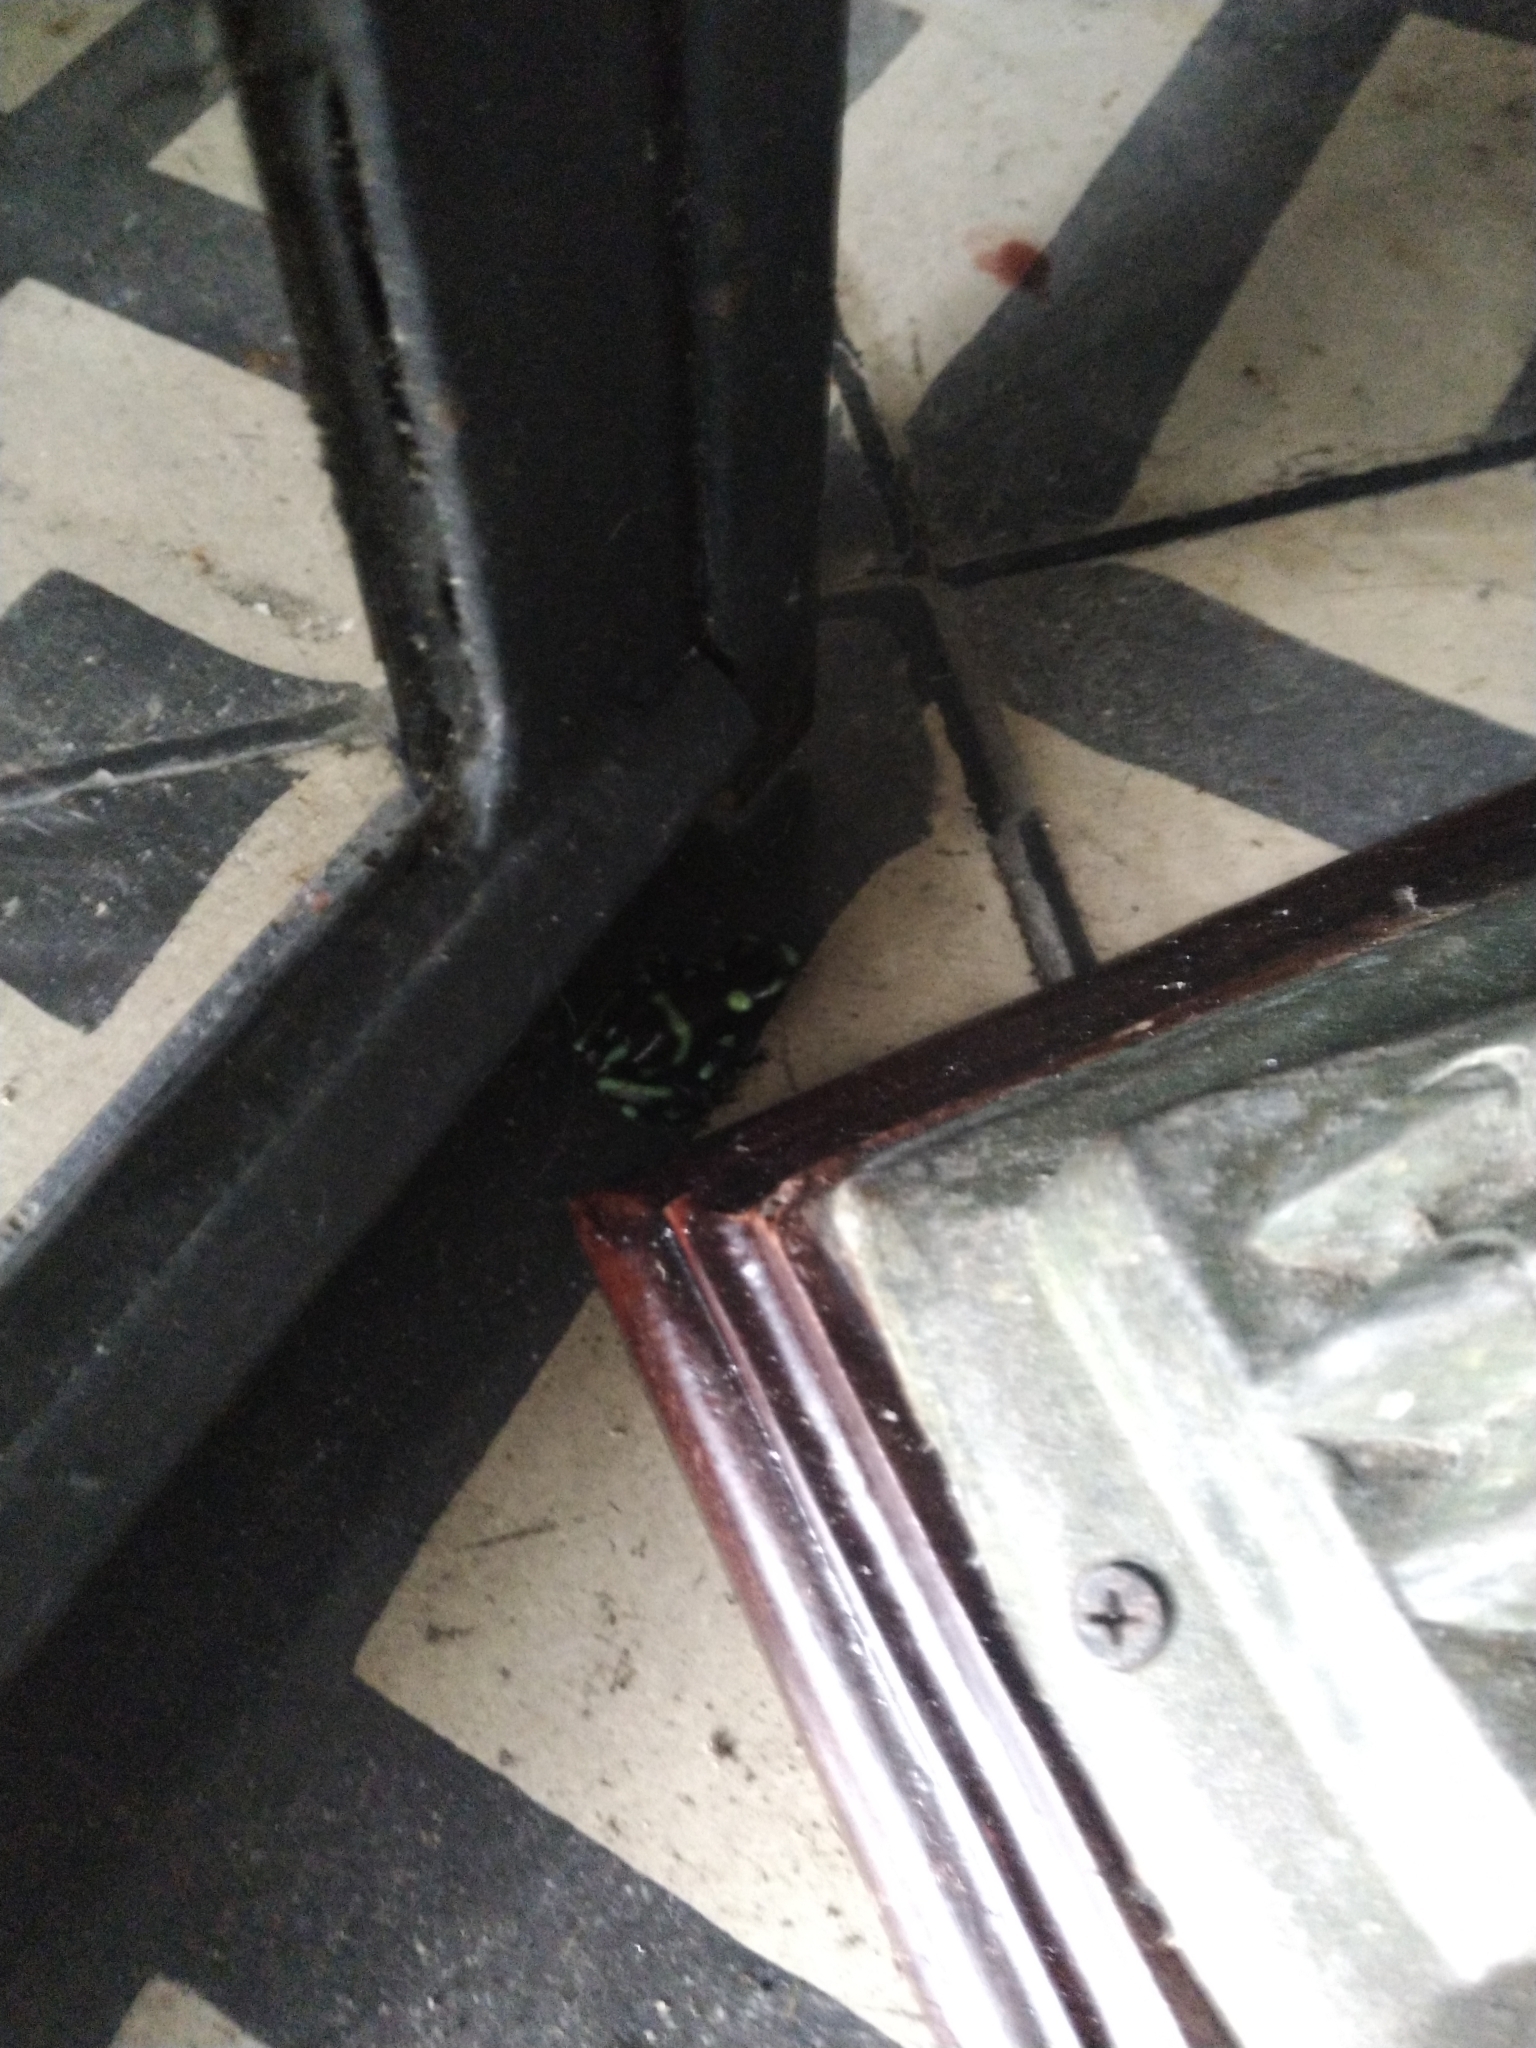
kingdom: Animalia
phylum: Chordata
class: Amphibia
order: Anura
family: Dendrobatidae
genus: Dendrobates
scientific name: Dendrobates auratus
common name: Green and black poison dart frog
